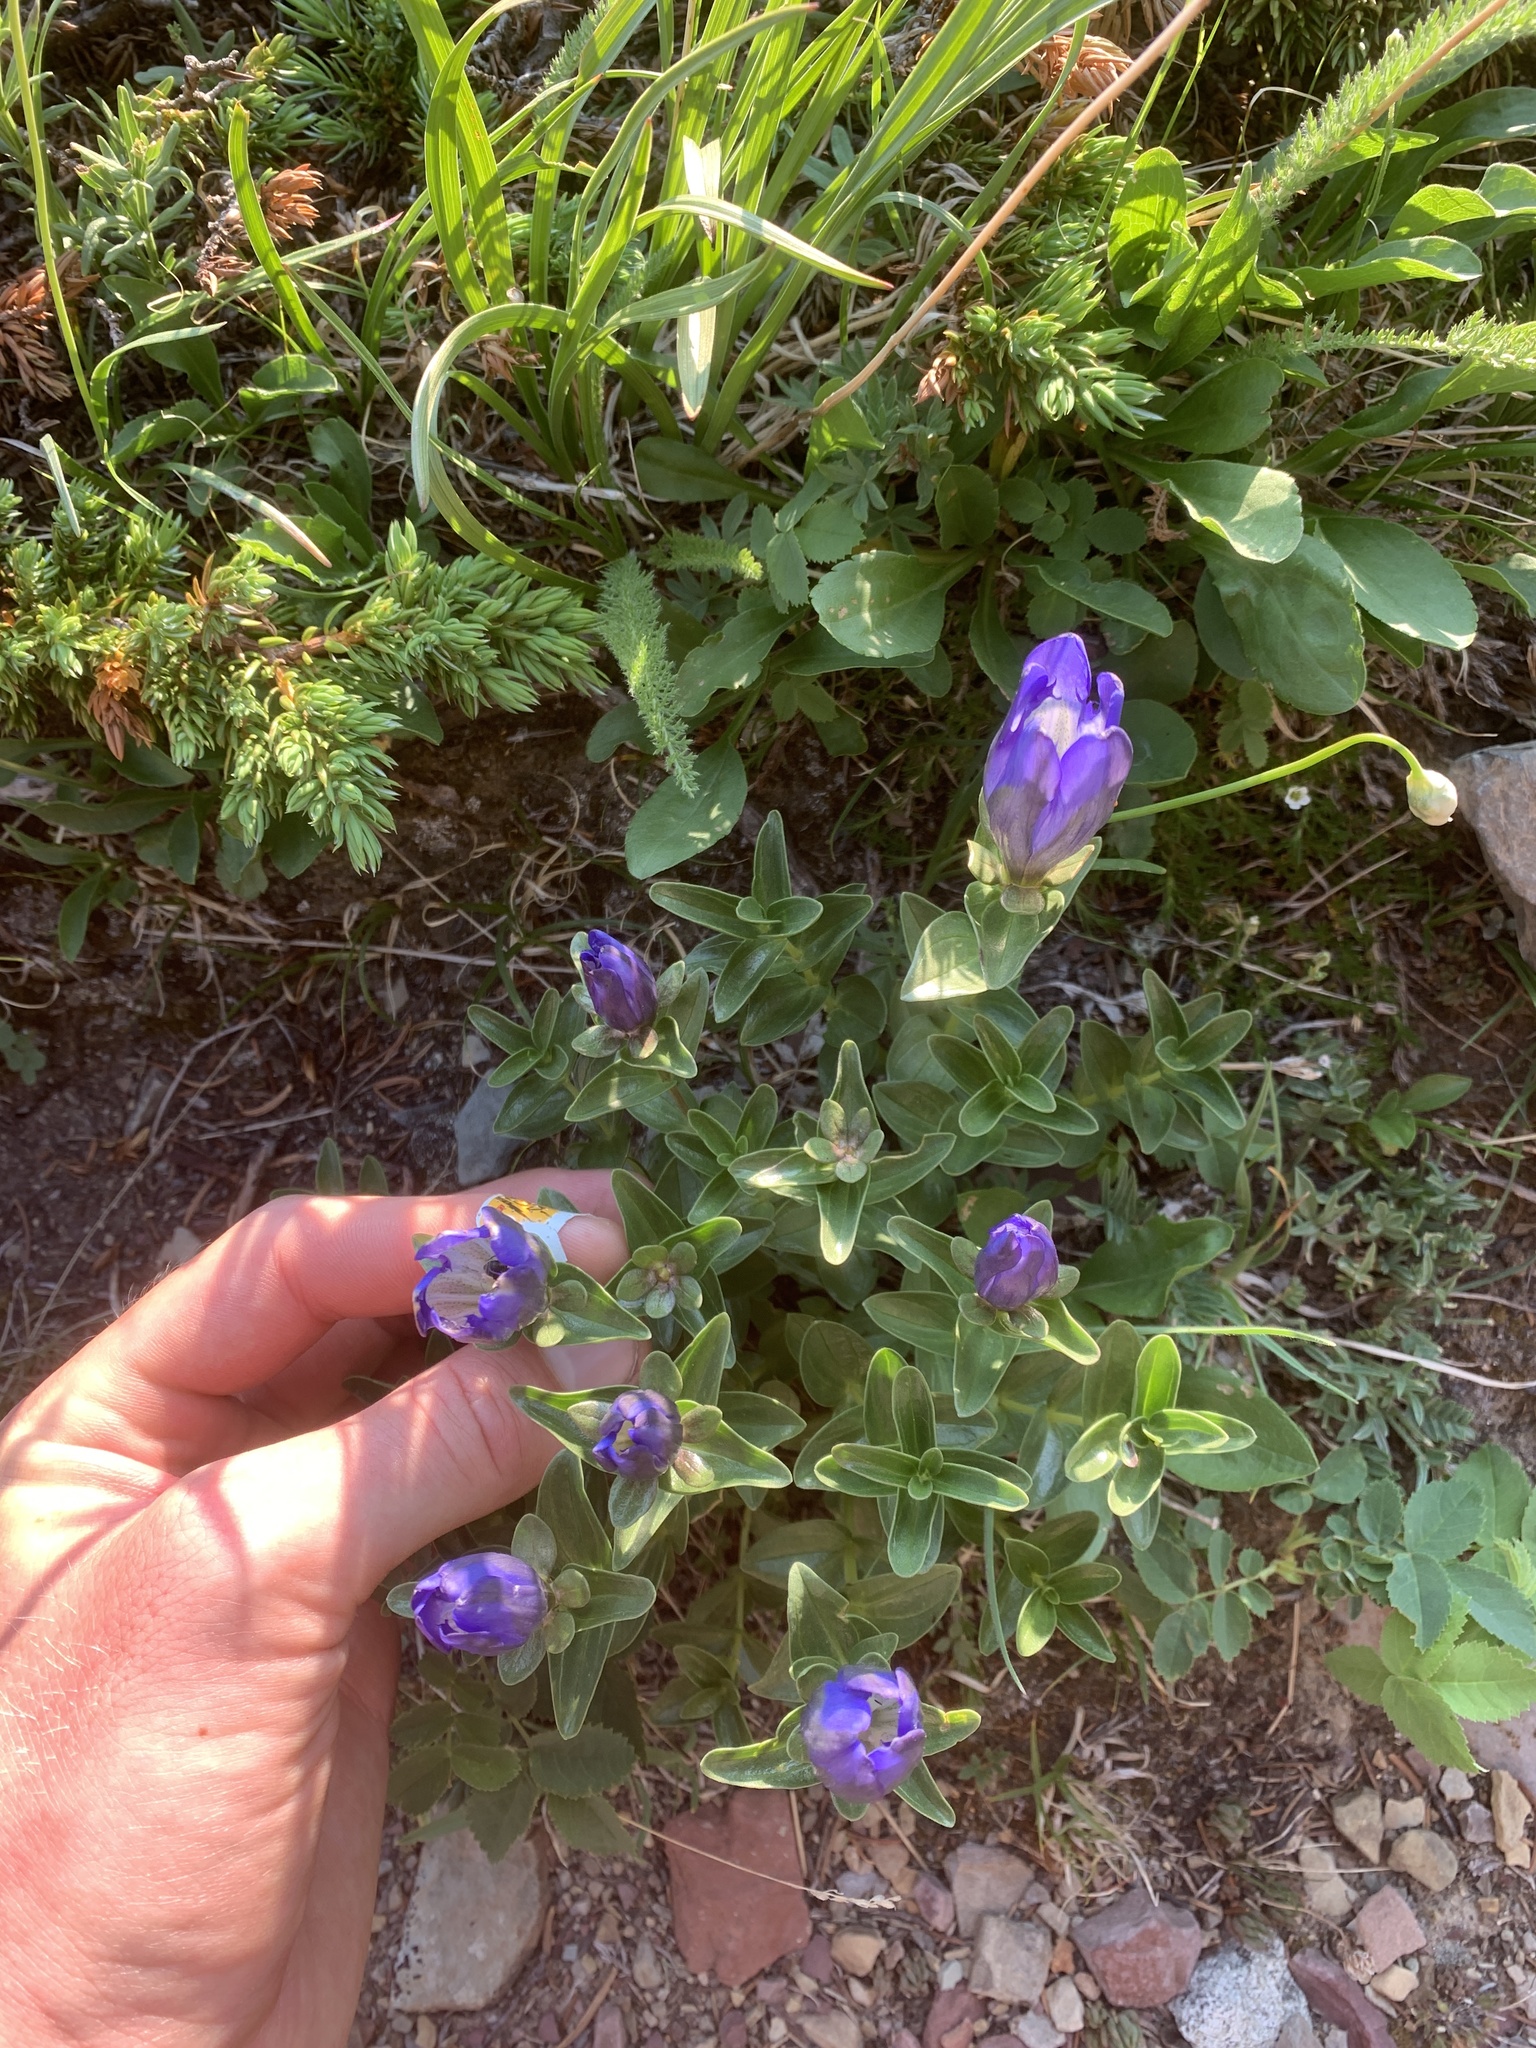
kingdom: Plantae
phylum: Tracheophyta
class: Magnoliopsida
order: Gentianales
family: Gentianaceae
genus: Gentiana
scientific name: Gentiana calycosa
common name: Rainier pleated gentian
